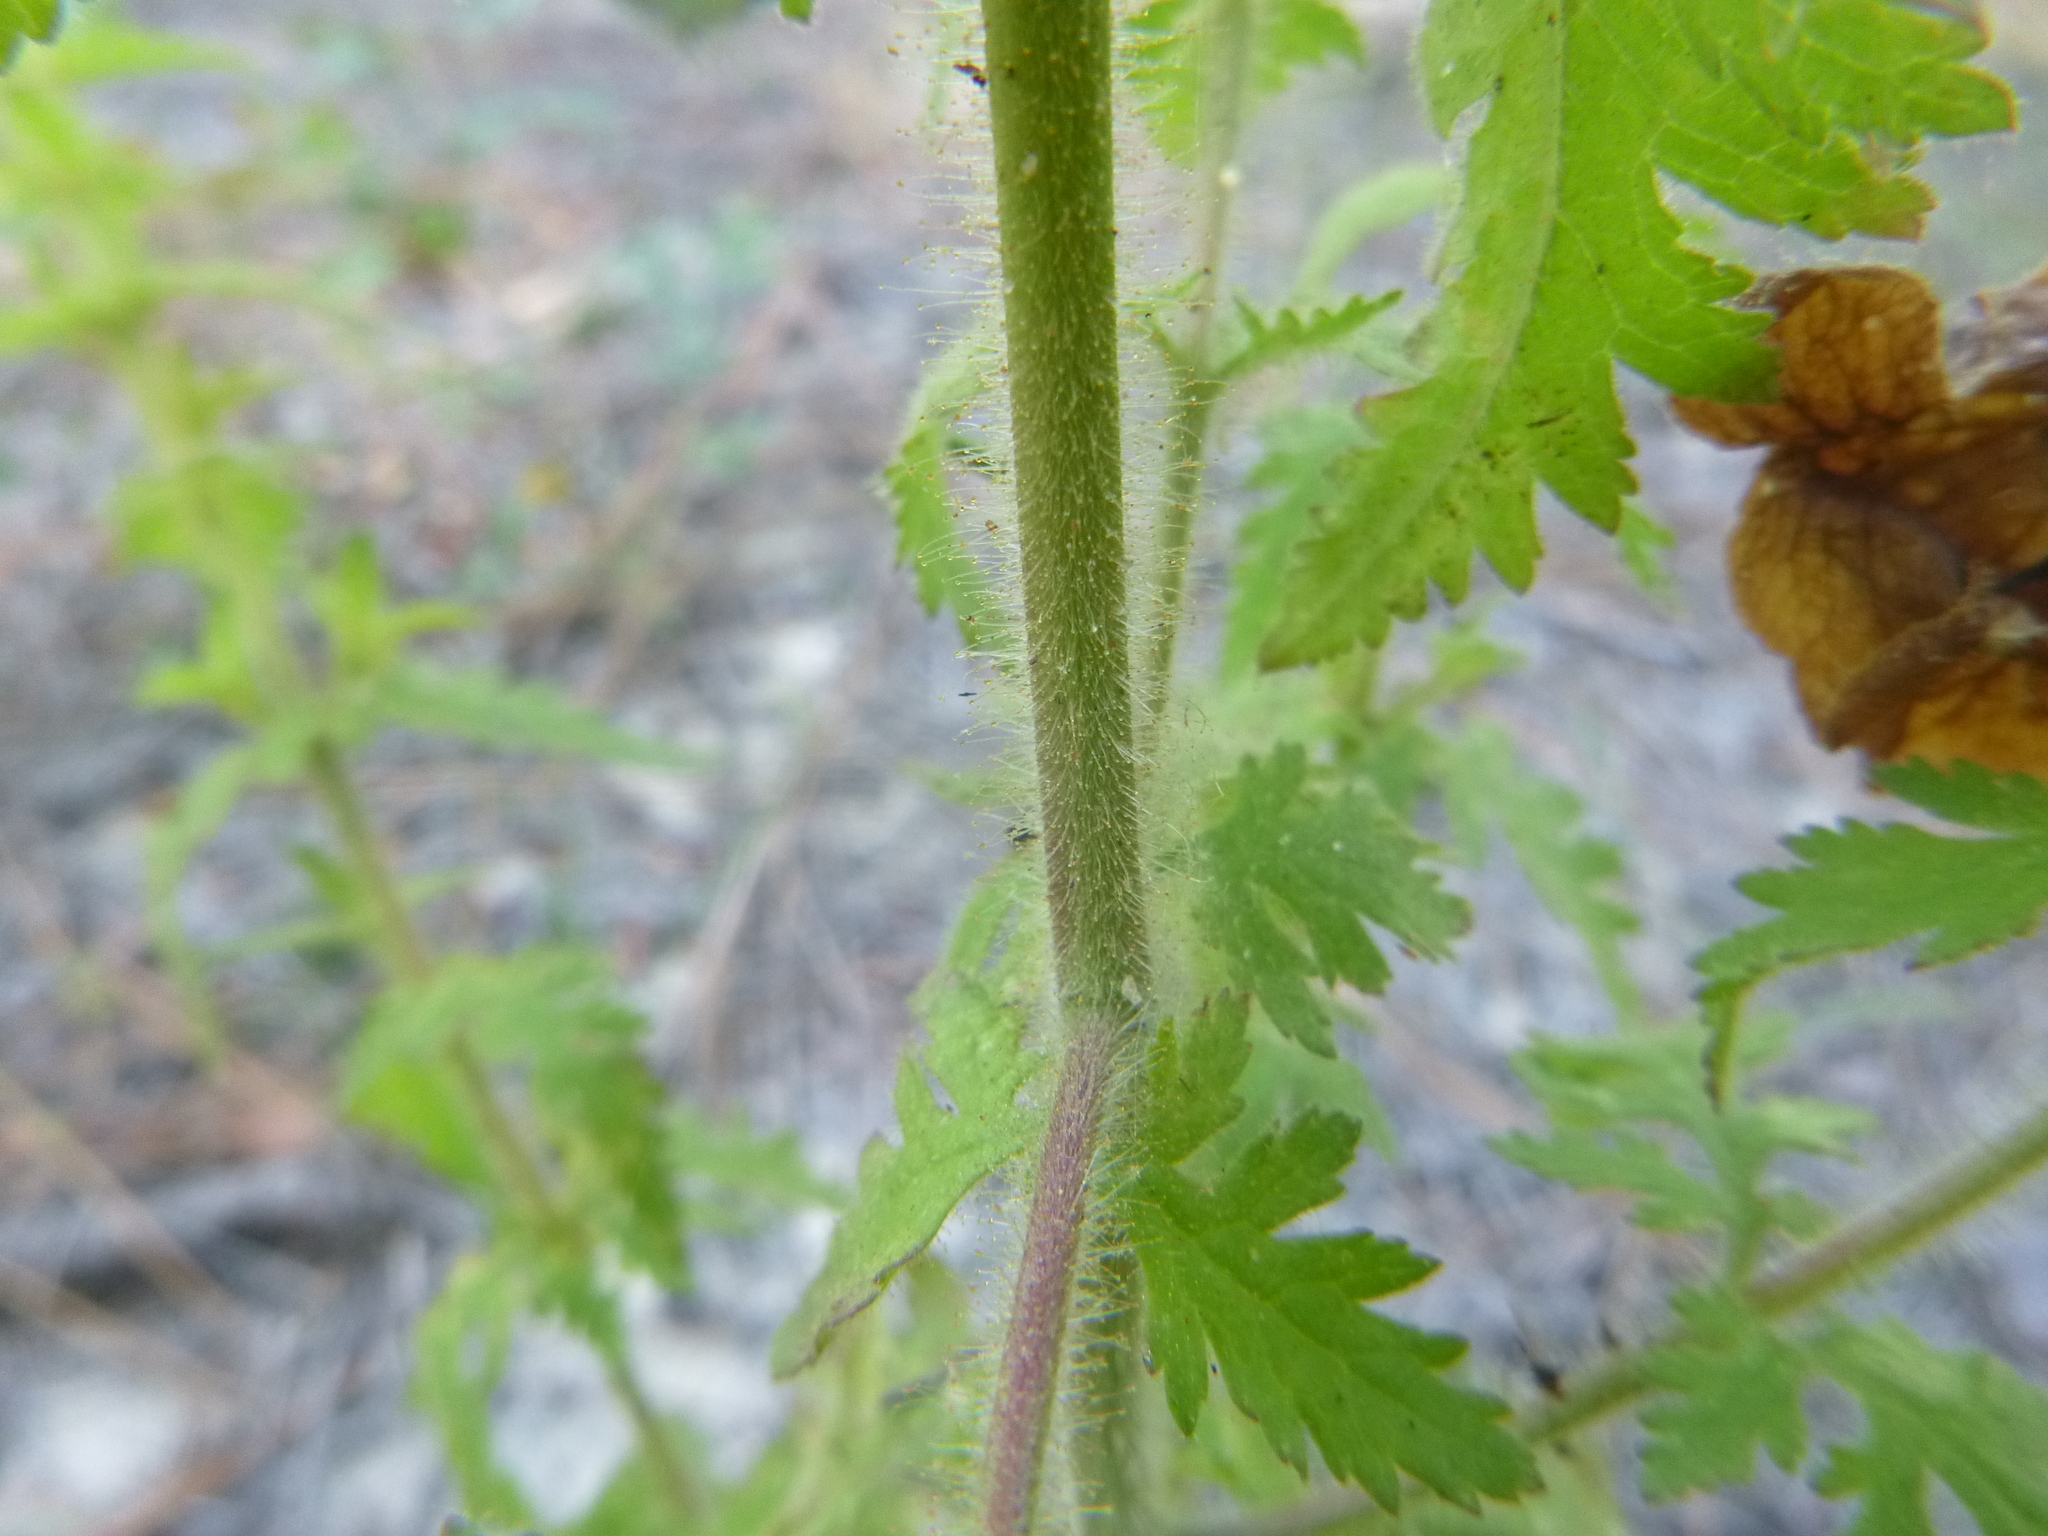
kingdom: Plantae
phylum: Tracheophyta
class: Magnoliopsida
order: Lamiales
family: Orobanchaceae
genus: Aureolaria
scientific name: Aureolaria pectinata
